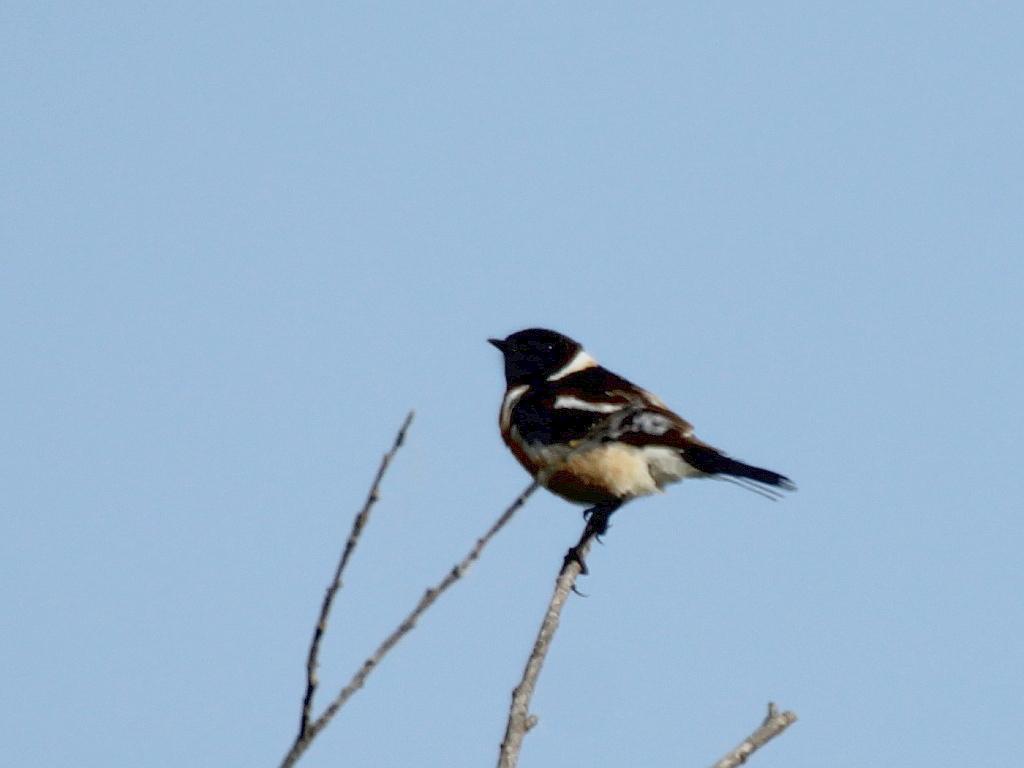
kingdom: Animalia
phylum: Chordata
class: Aves
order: Passeriformes
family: Muscicapidae
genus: Saxicola
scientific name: Saxicola maurus
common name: Siberian stonechat
